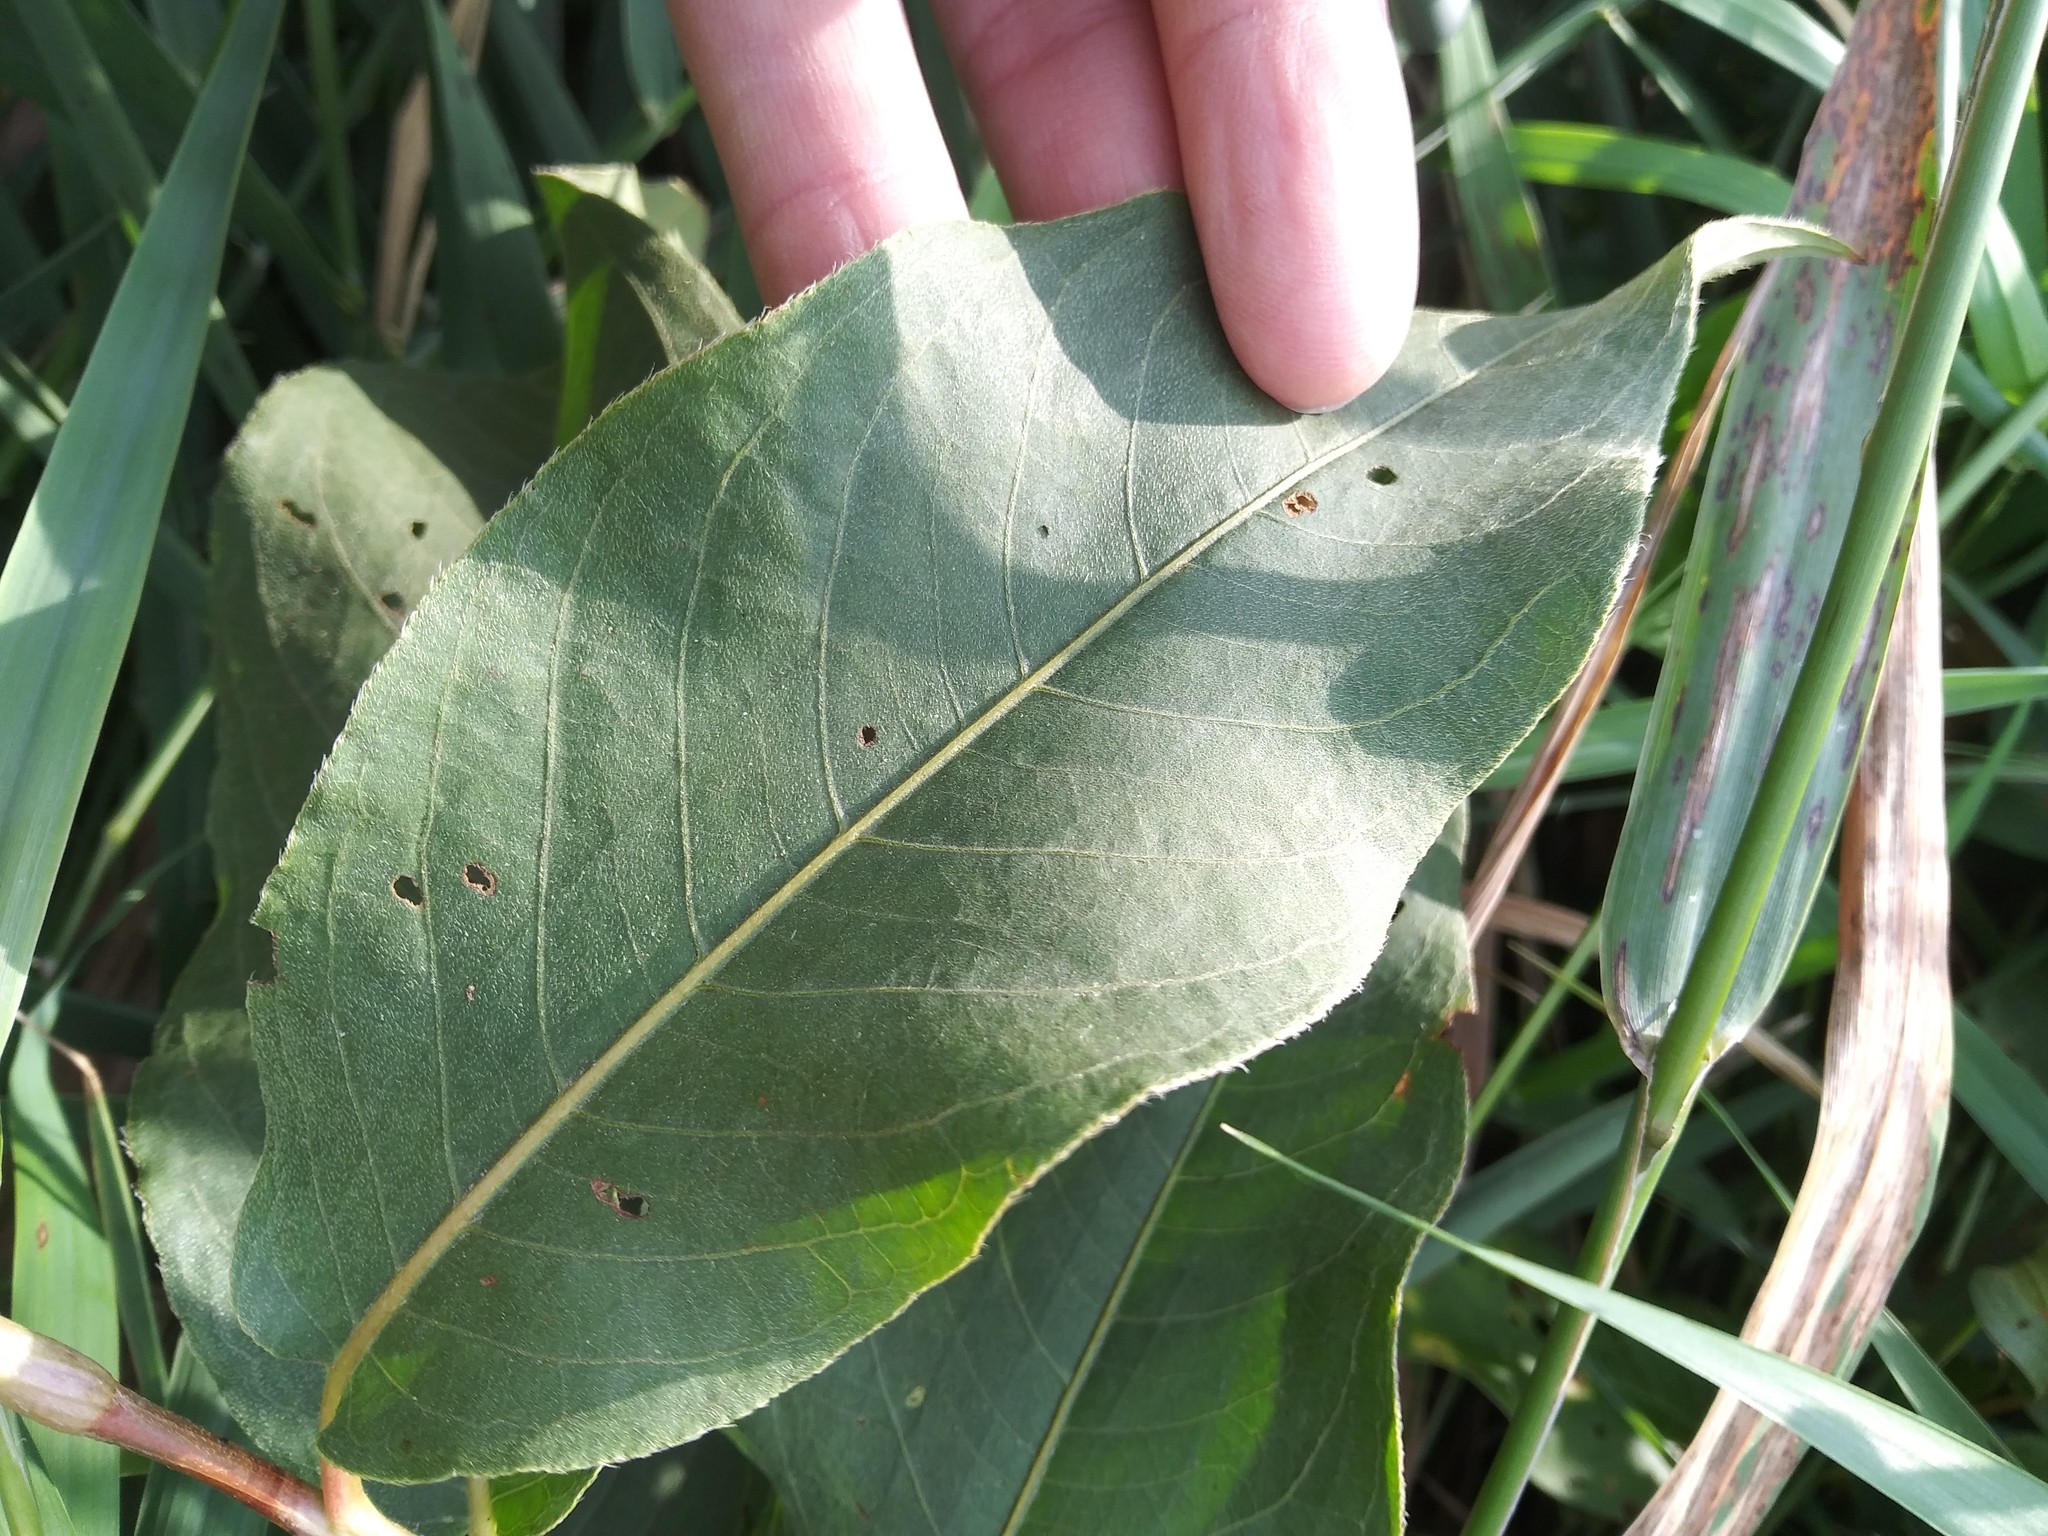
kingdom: Plantae
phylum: Tracheophyta
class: Magnoliopsida
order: Caryophyllales
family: Polygonaceae
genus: Persicaria
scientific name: Persicaria amphibia
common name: Amphibious bistort
